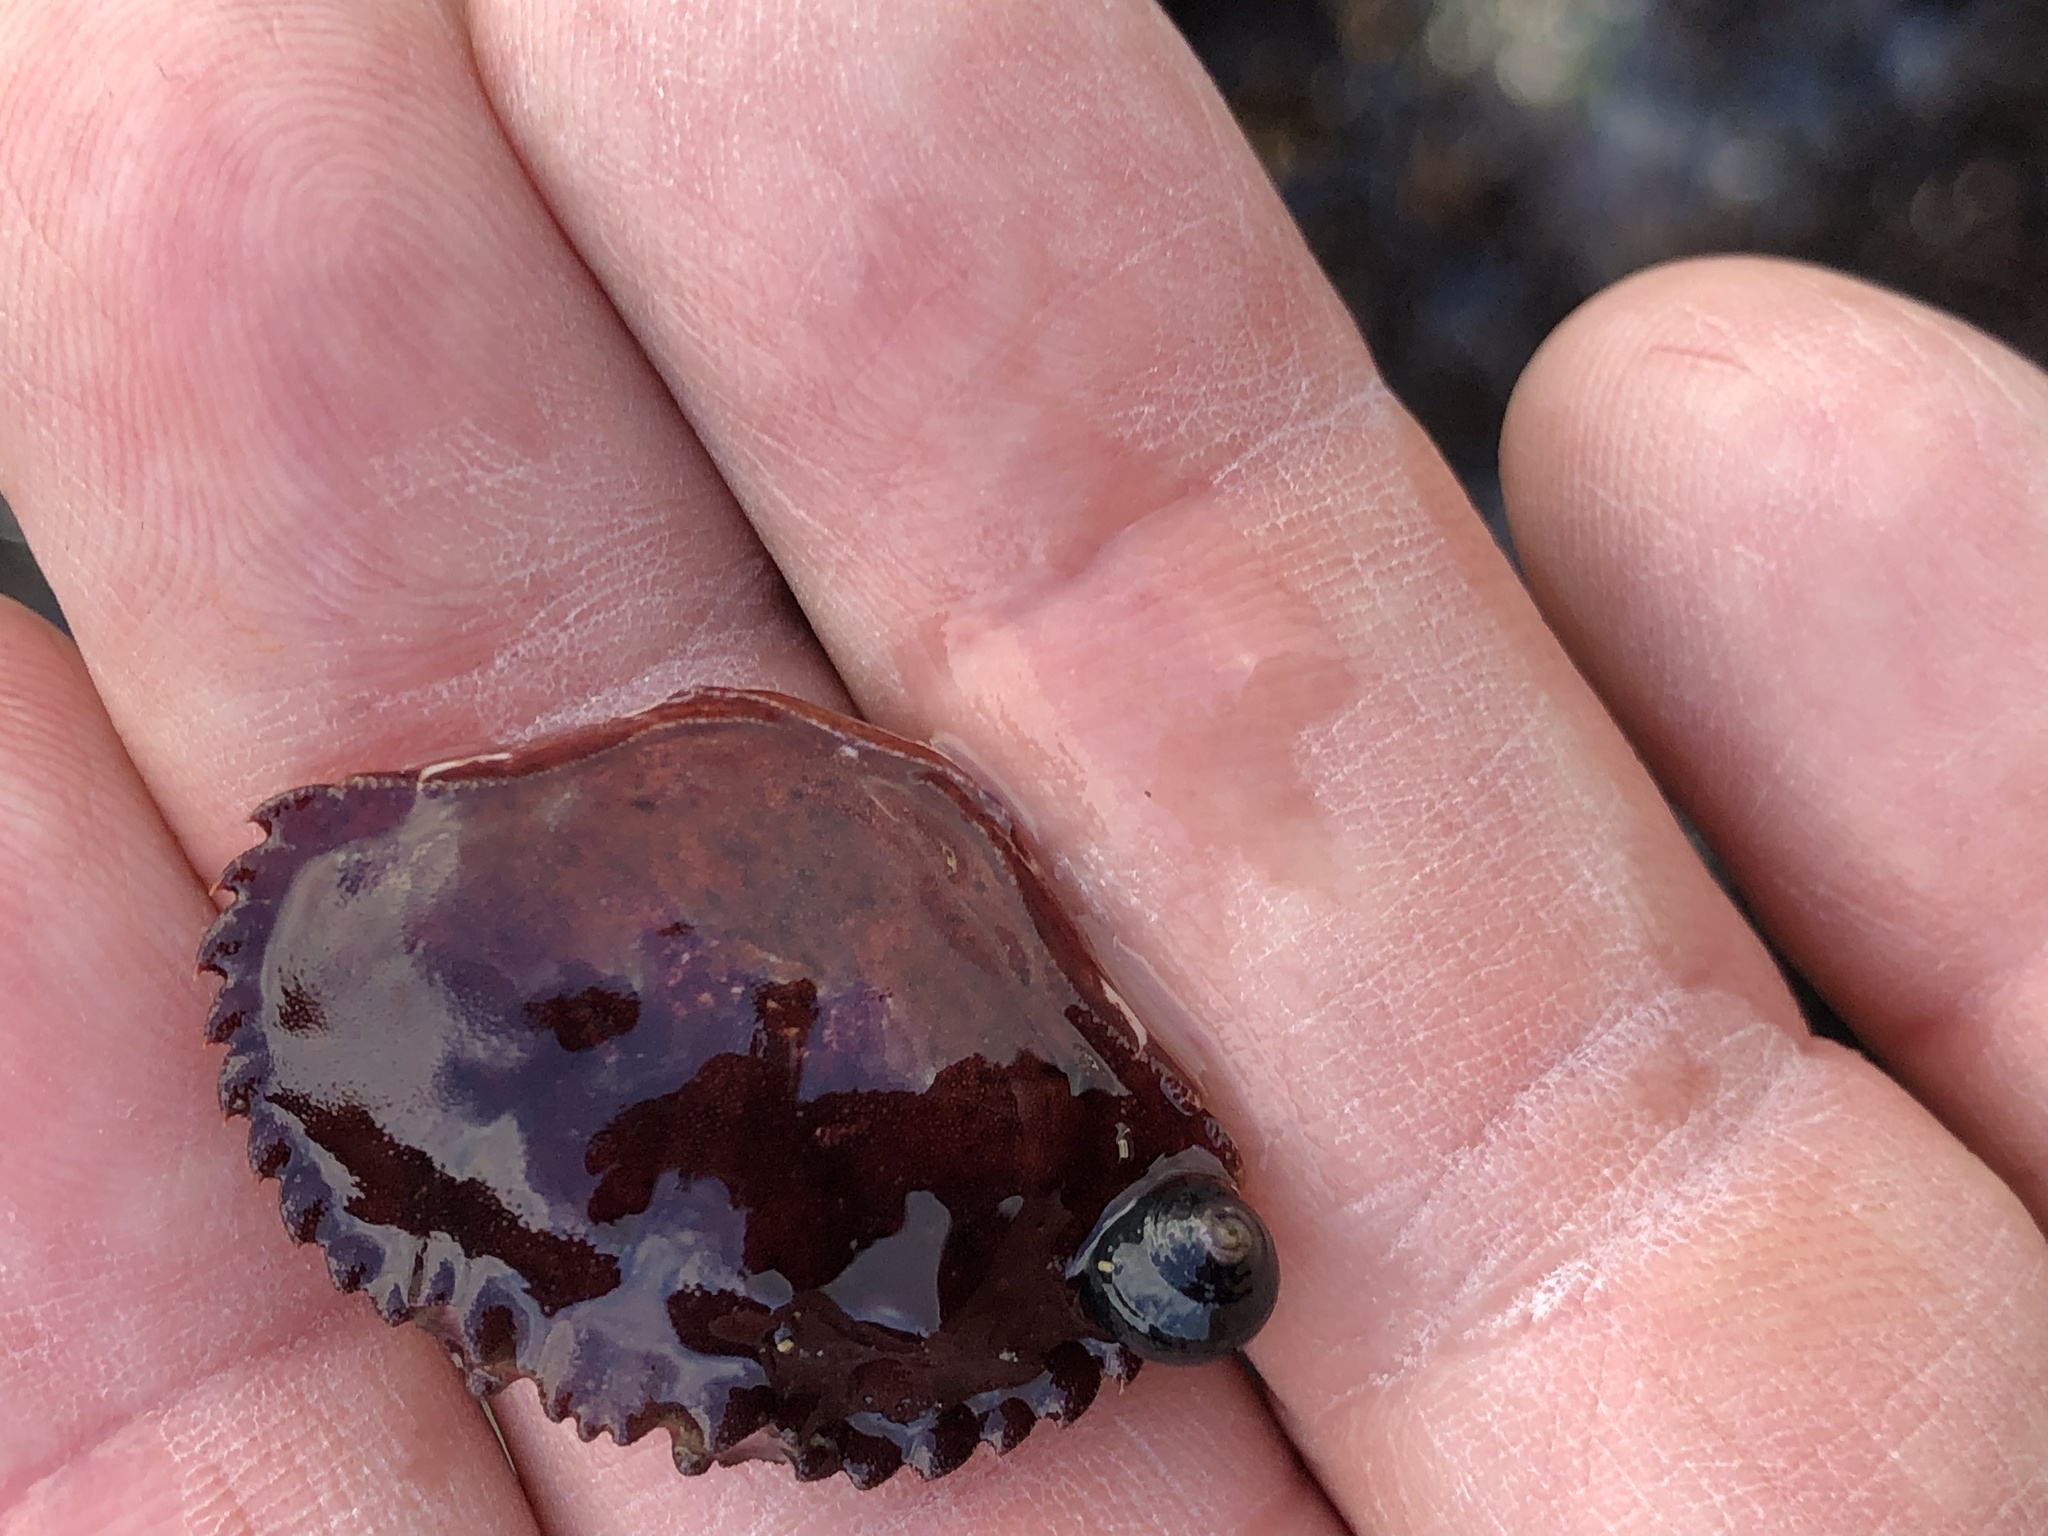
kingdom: Animalia
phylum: Arthropoda
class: Malacostraca
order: Decapoda
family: Cancridae
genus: Romaleon
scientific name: Romaleon antennarium
